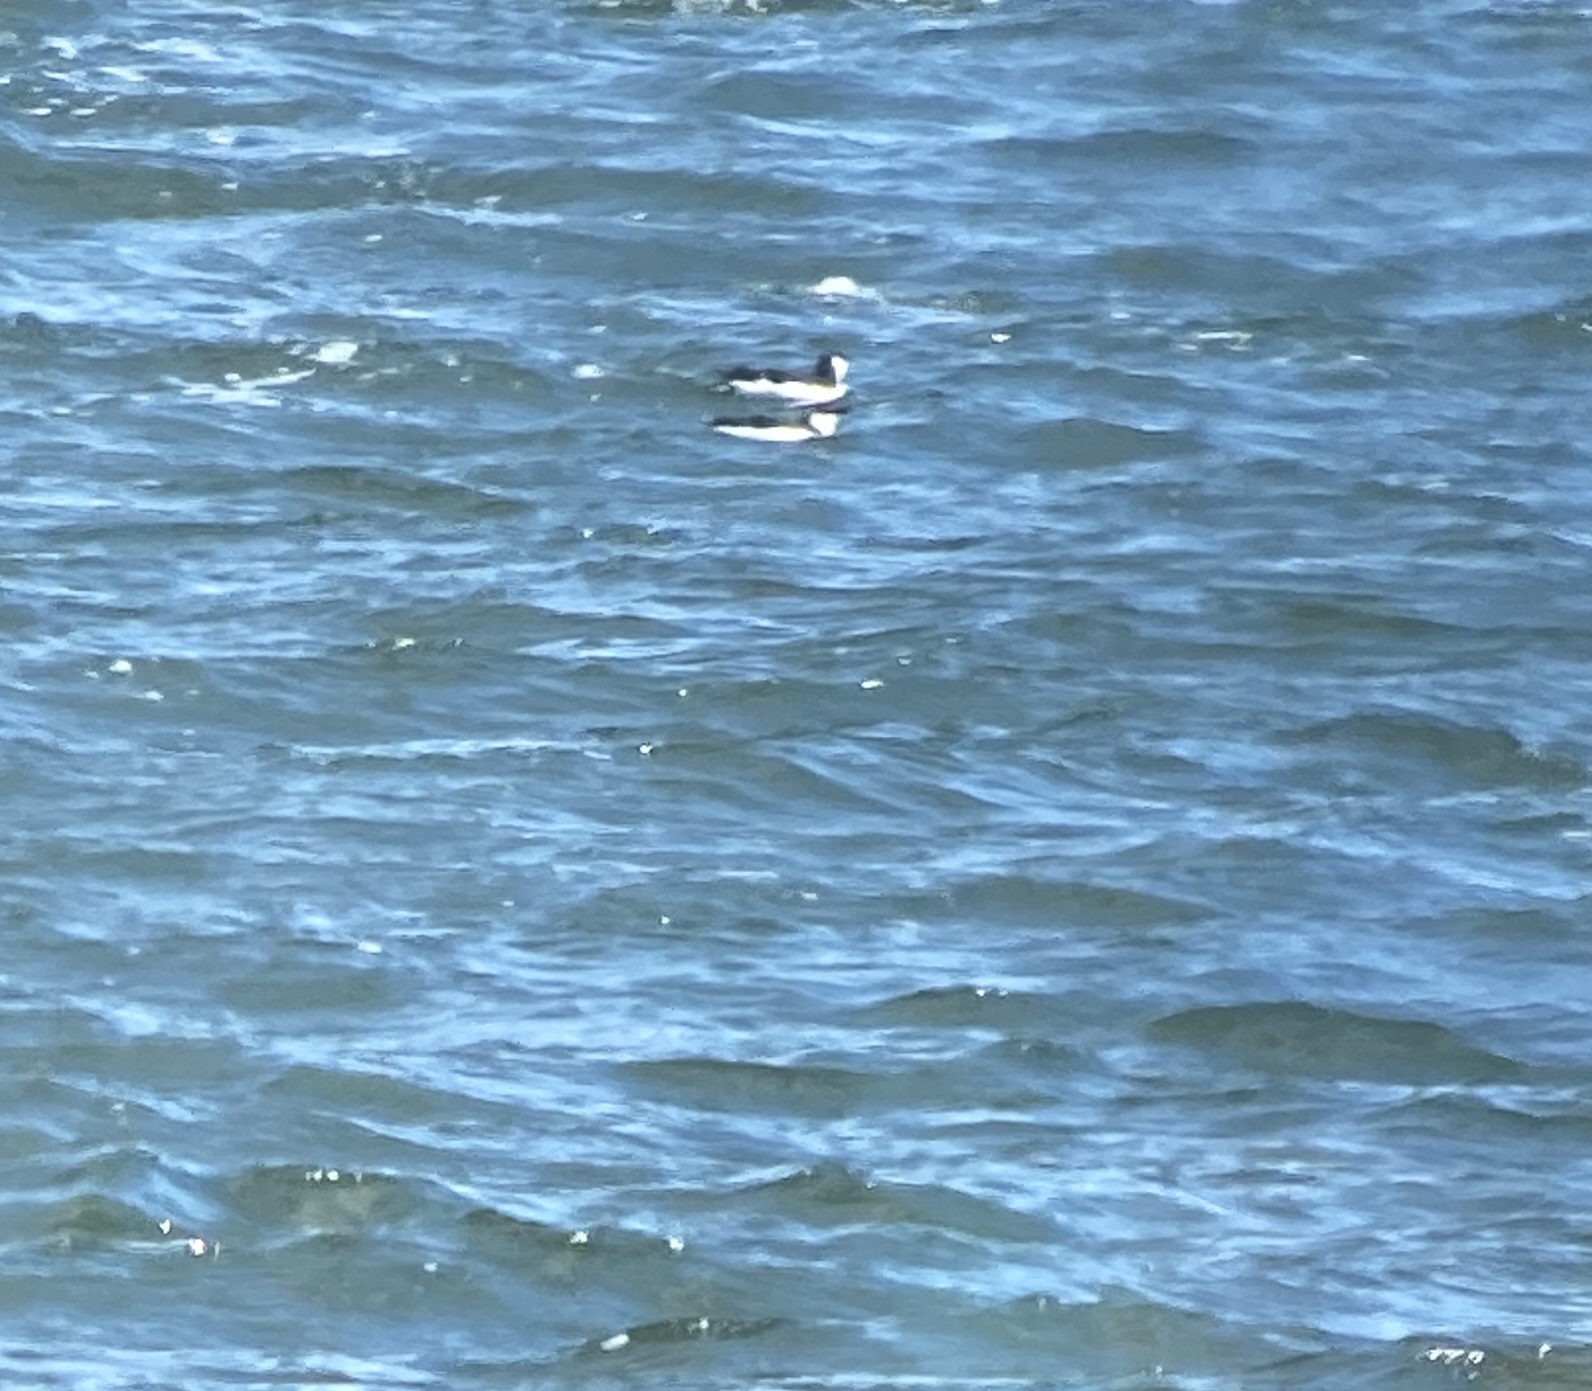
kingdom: Animalia
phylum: Chordata
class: Aves
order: Charadriiformes
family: Alcidae
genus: Alca
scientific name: Alca torda
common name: Razorbill
